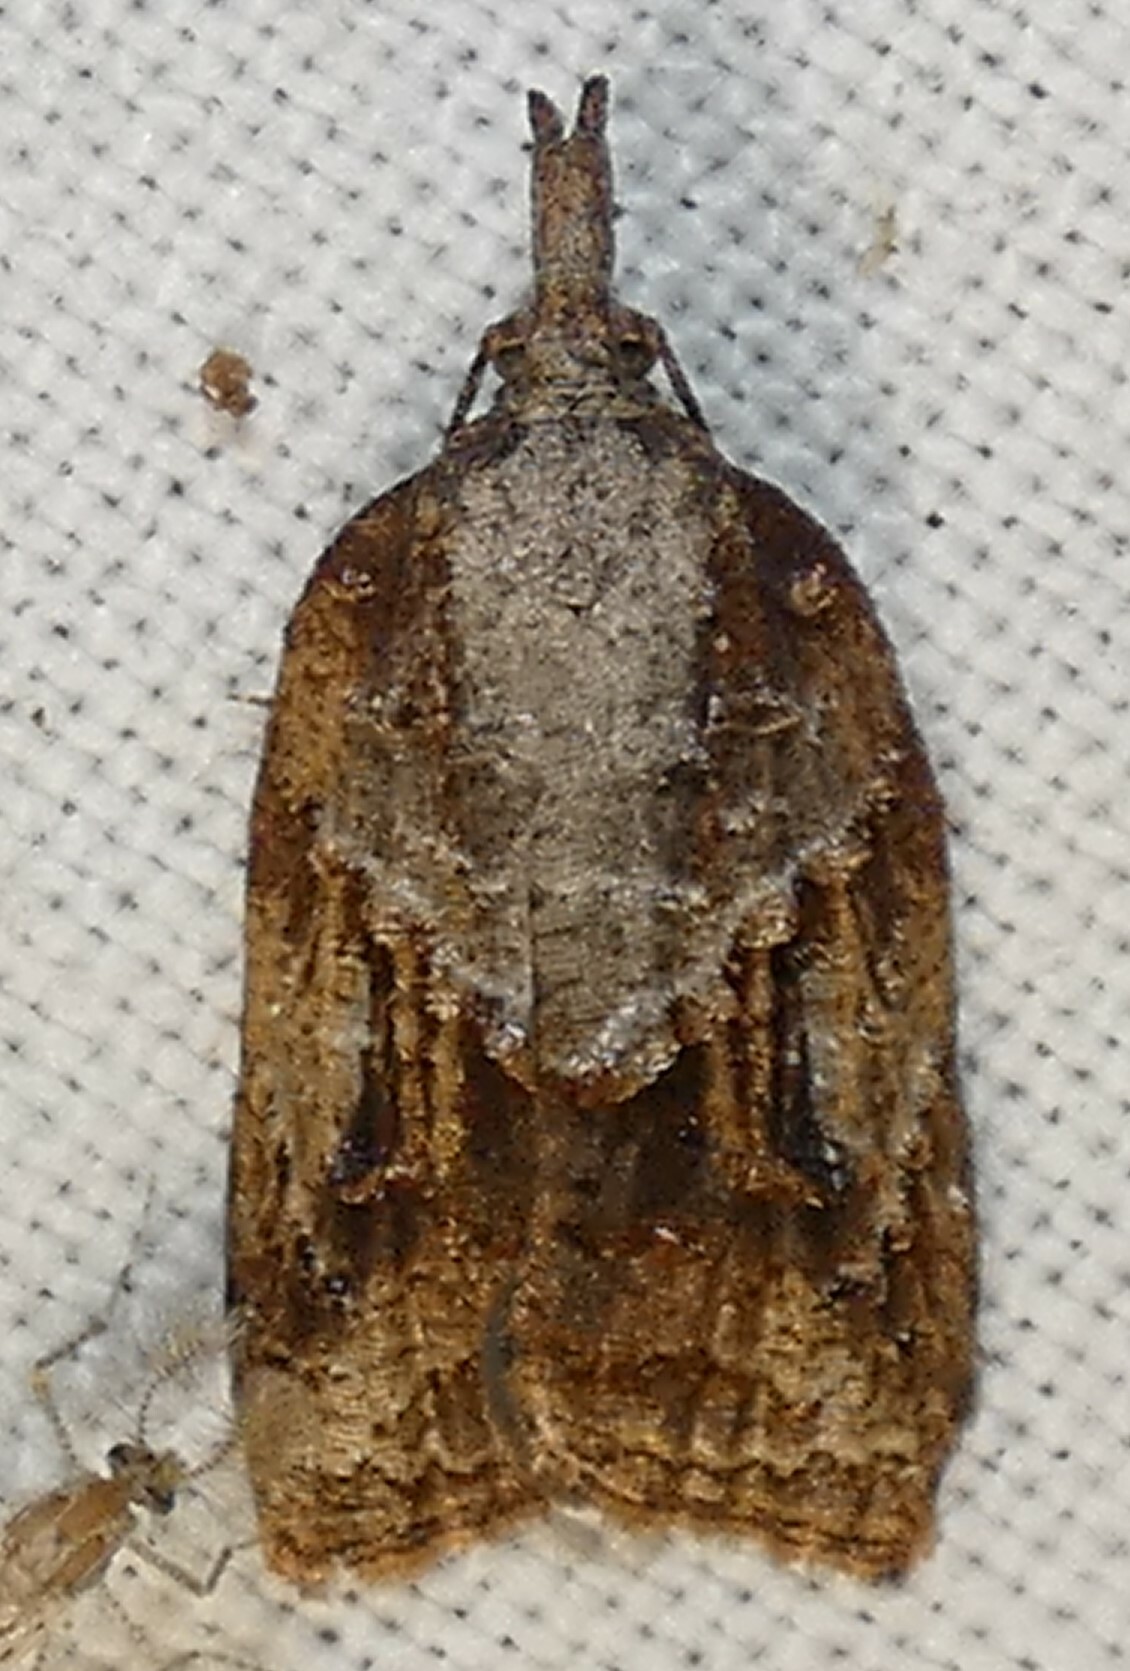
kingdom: Animalia
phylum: Arthropoda
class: Insecta
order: Lepidoptera
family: Tortricidae
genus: Platynota
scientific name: Platynota idaeusalis
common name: Tufted apple bud moth
